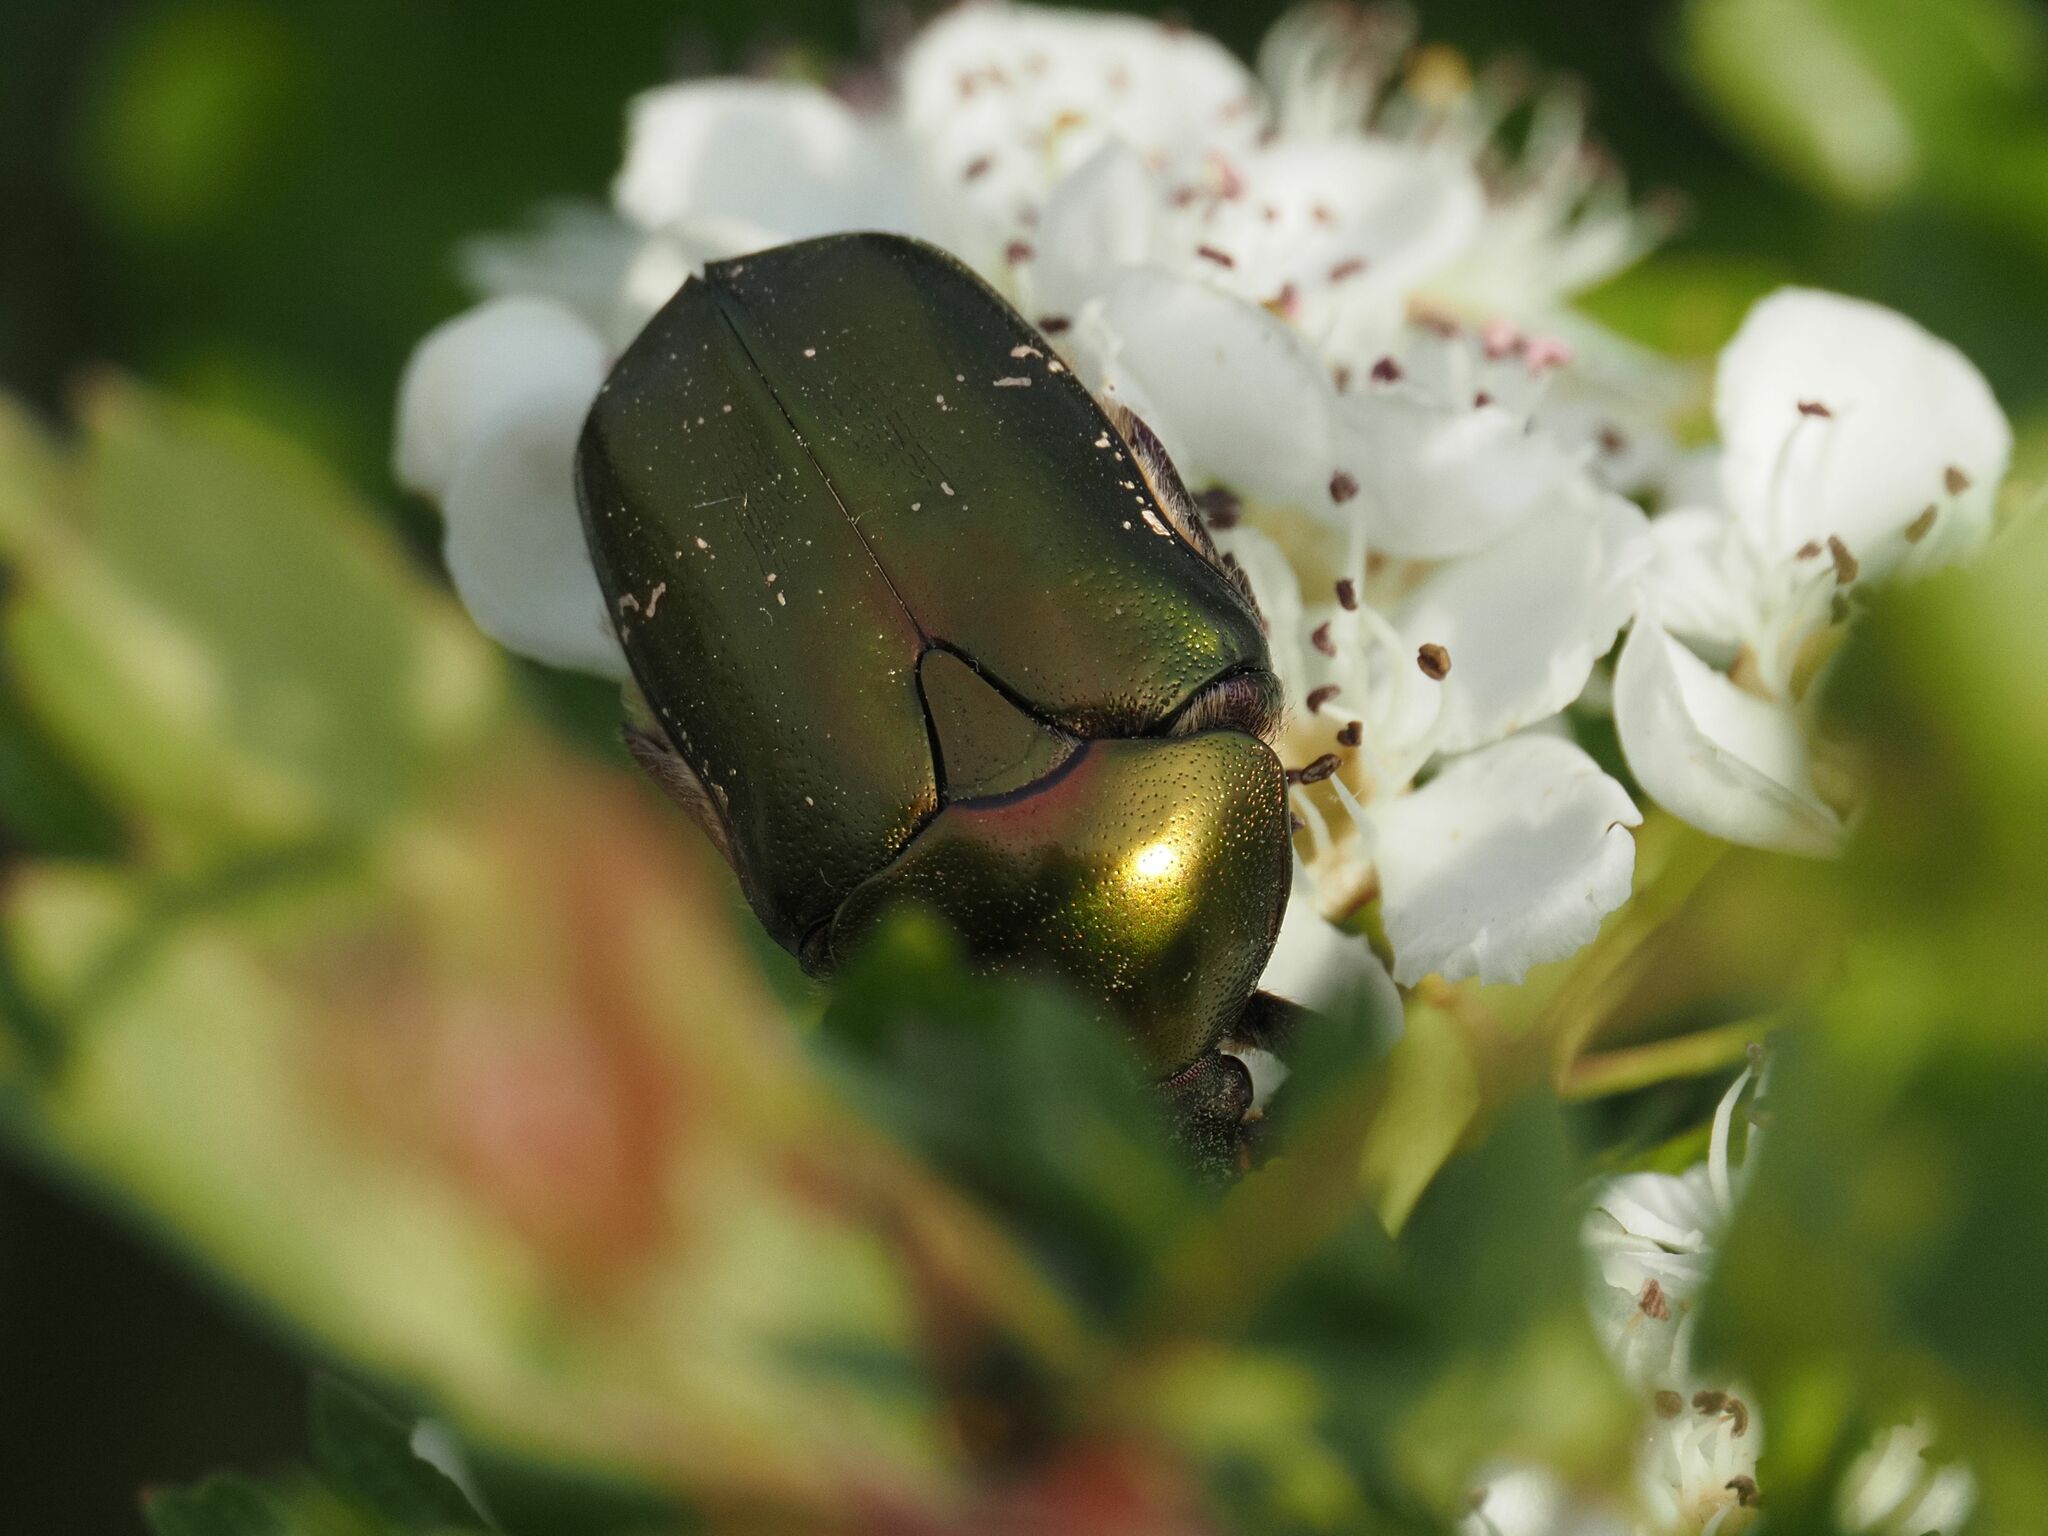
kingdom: Animalia
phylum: Arthropoda
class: Insecta
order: Coleoptera
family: Scarabaeidae
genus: Protaetia
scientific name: Protaetia cuprea
